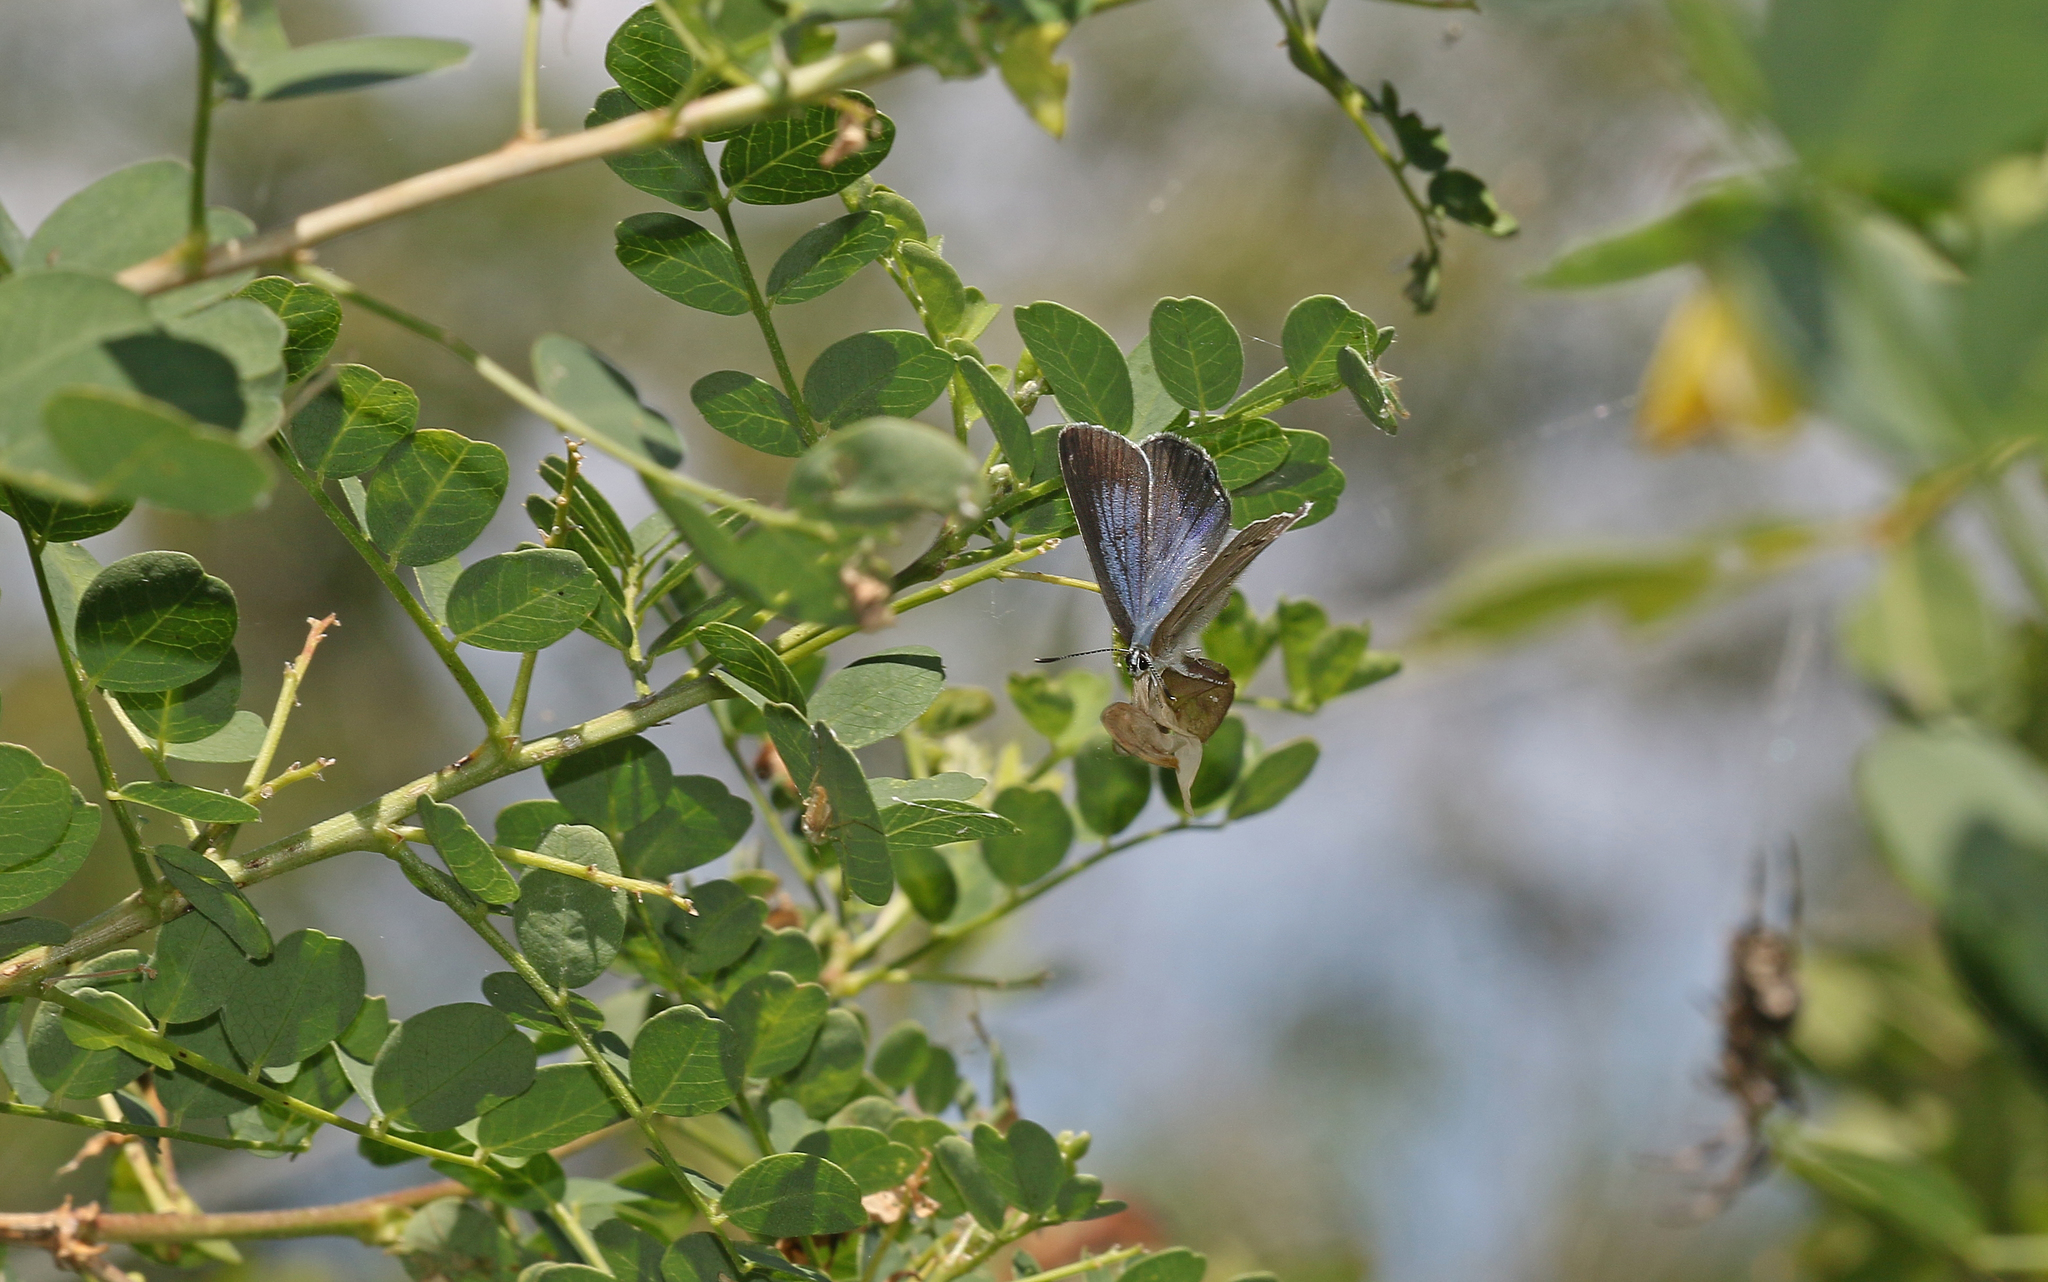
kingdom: Animalia
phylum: Arthropoda
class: Insecta
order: Lepidoptera
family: Lycaenidae
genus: Iolana
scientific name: Iolana iolas
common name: Iolas blue
